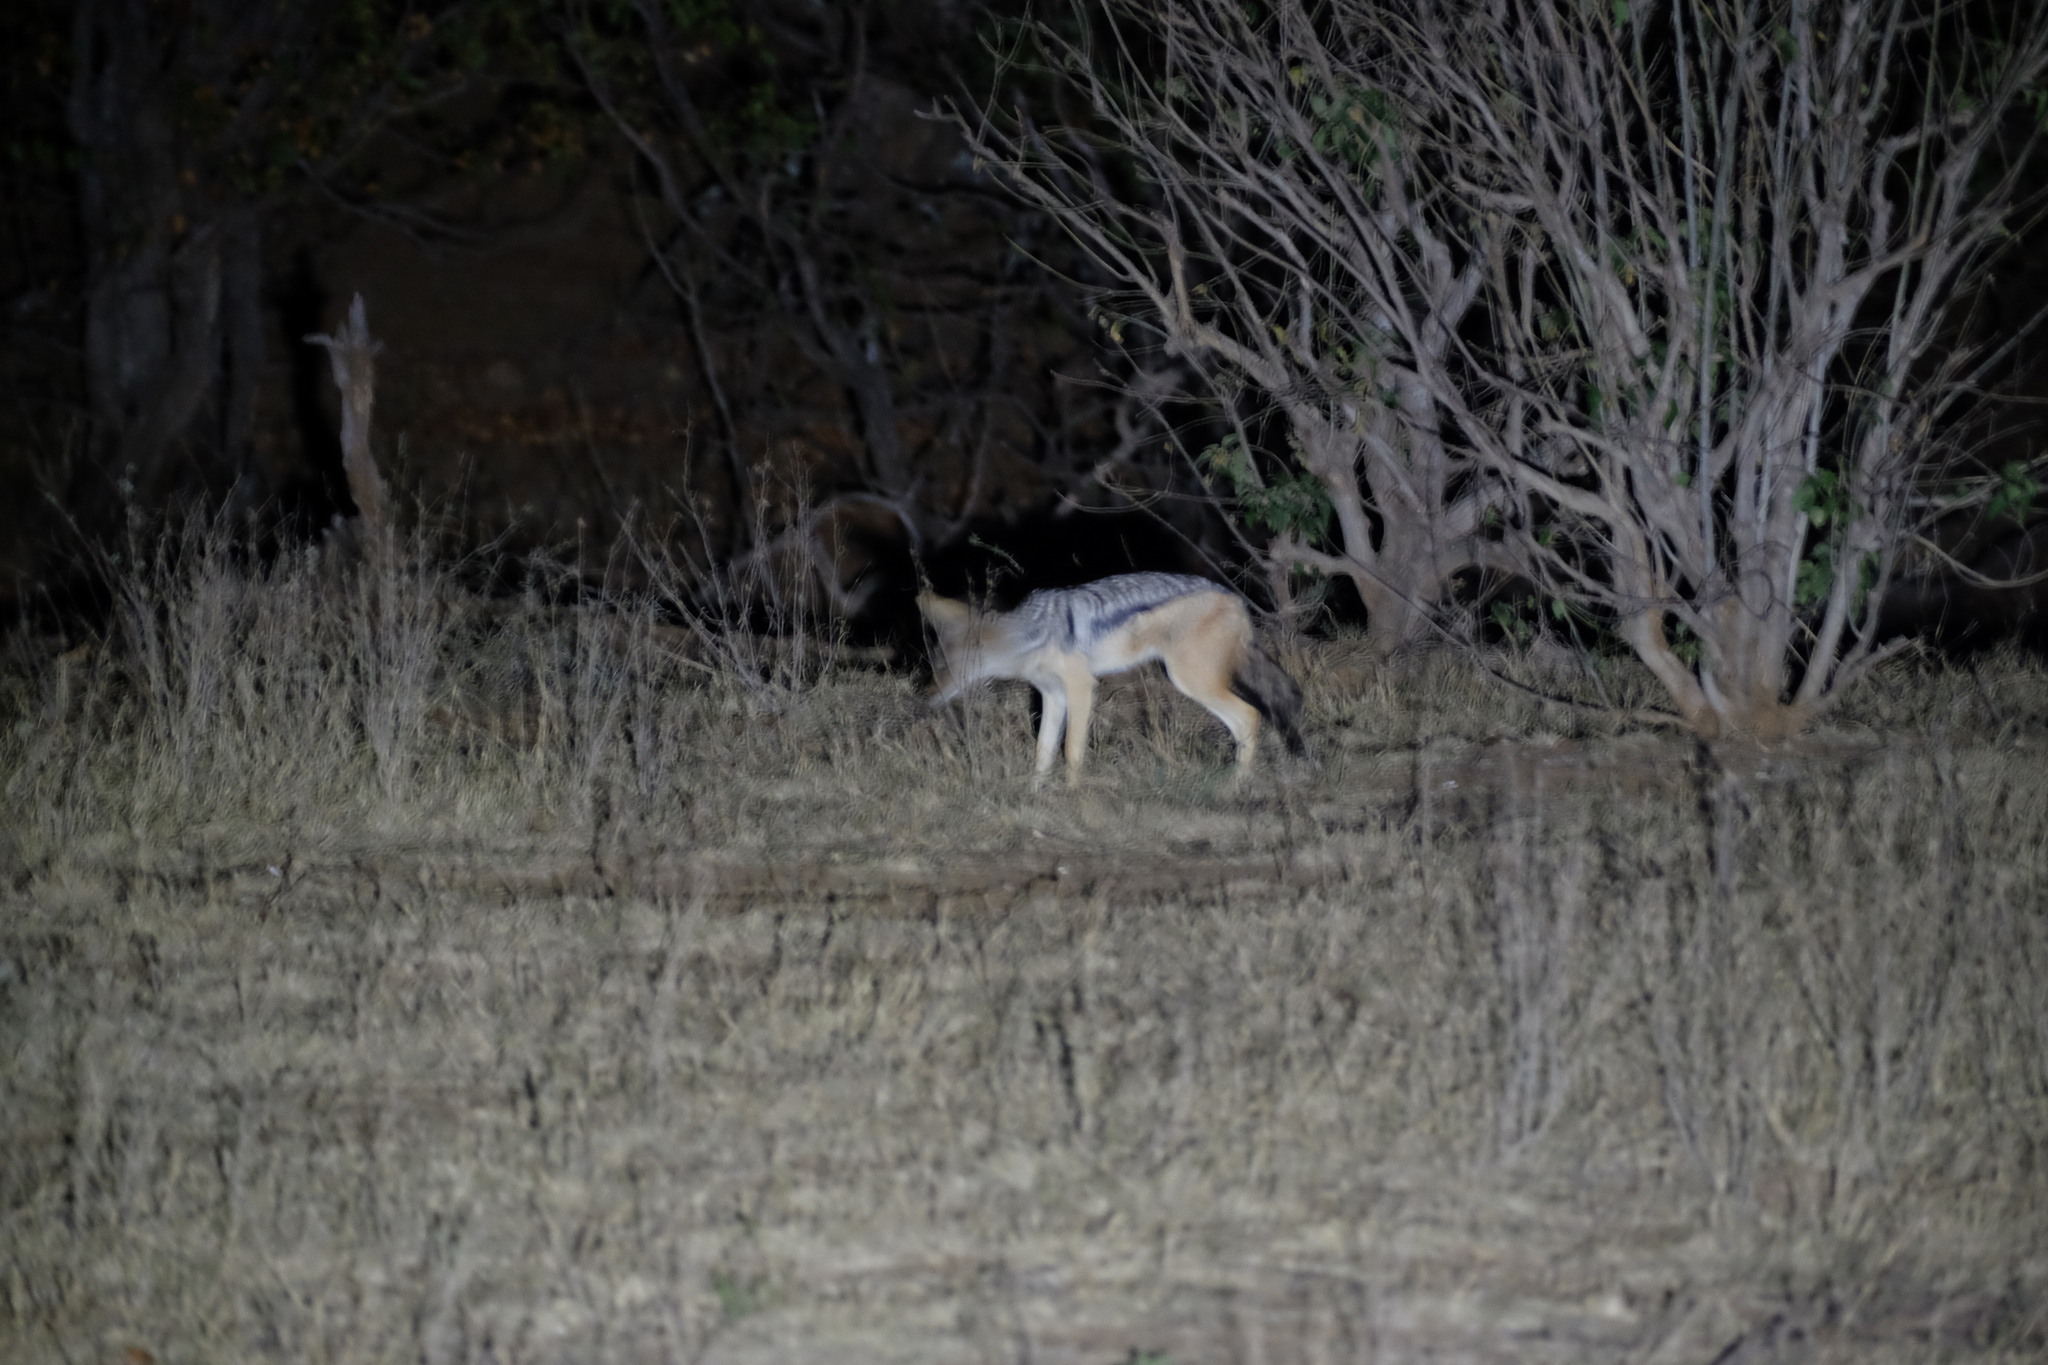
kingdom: Animalia
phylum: Chordata
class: Mammalia
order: Carnivora
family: Canidae
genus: Lupulella
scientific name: Lupulella
